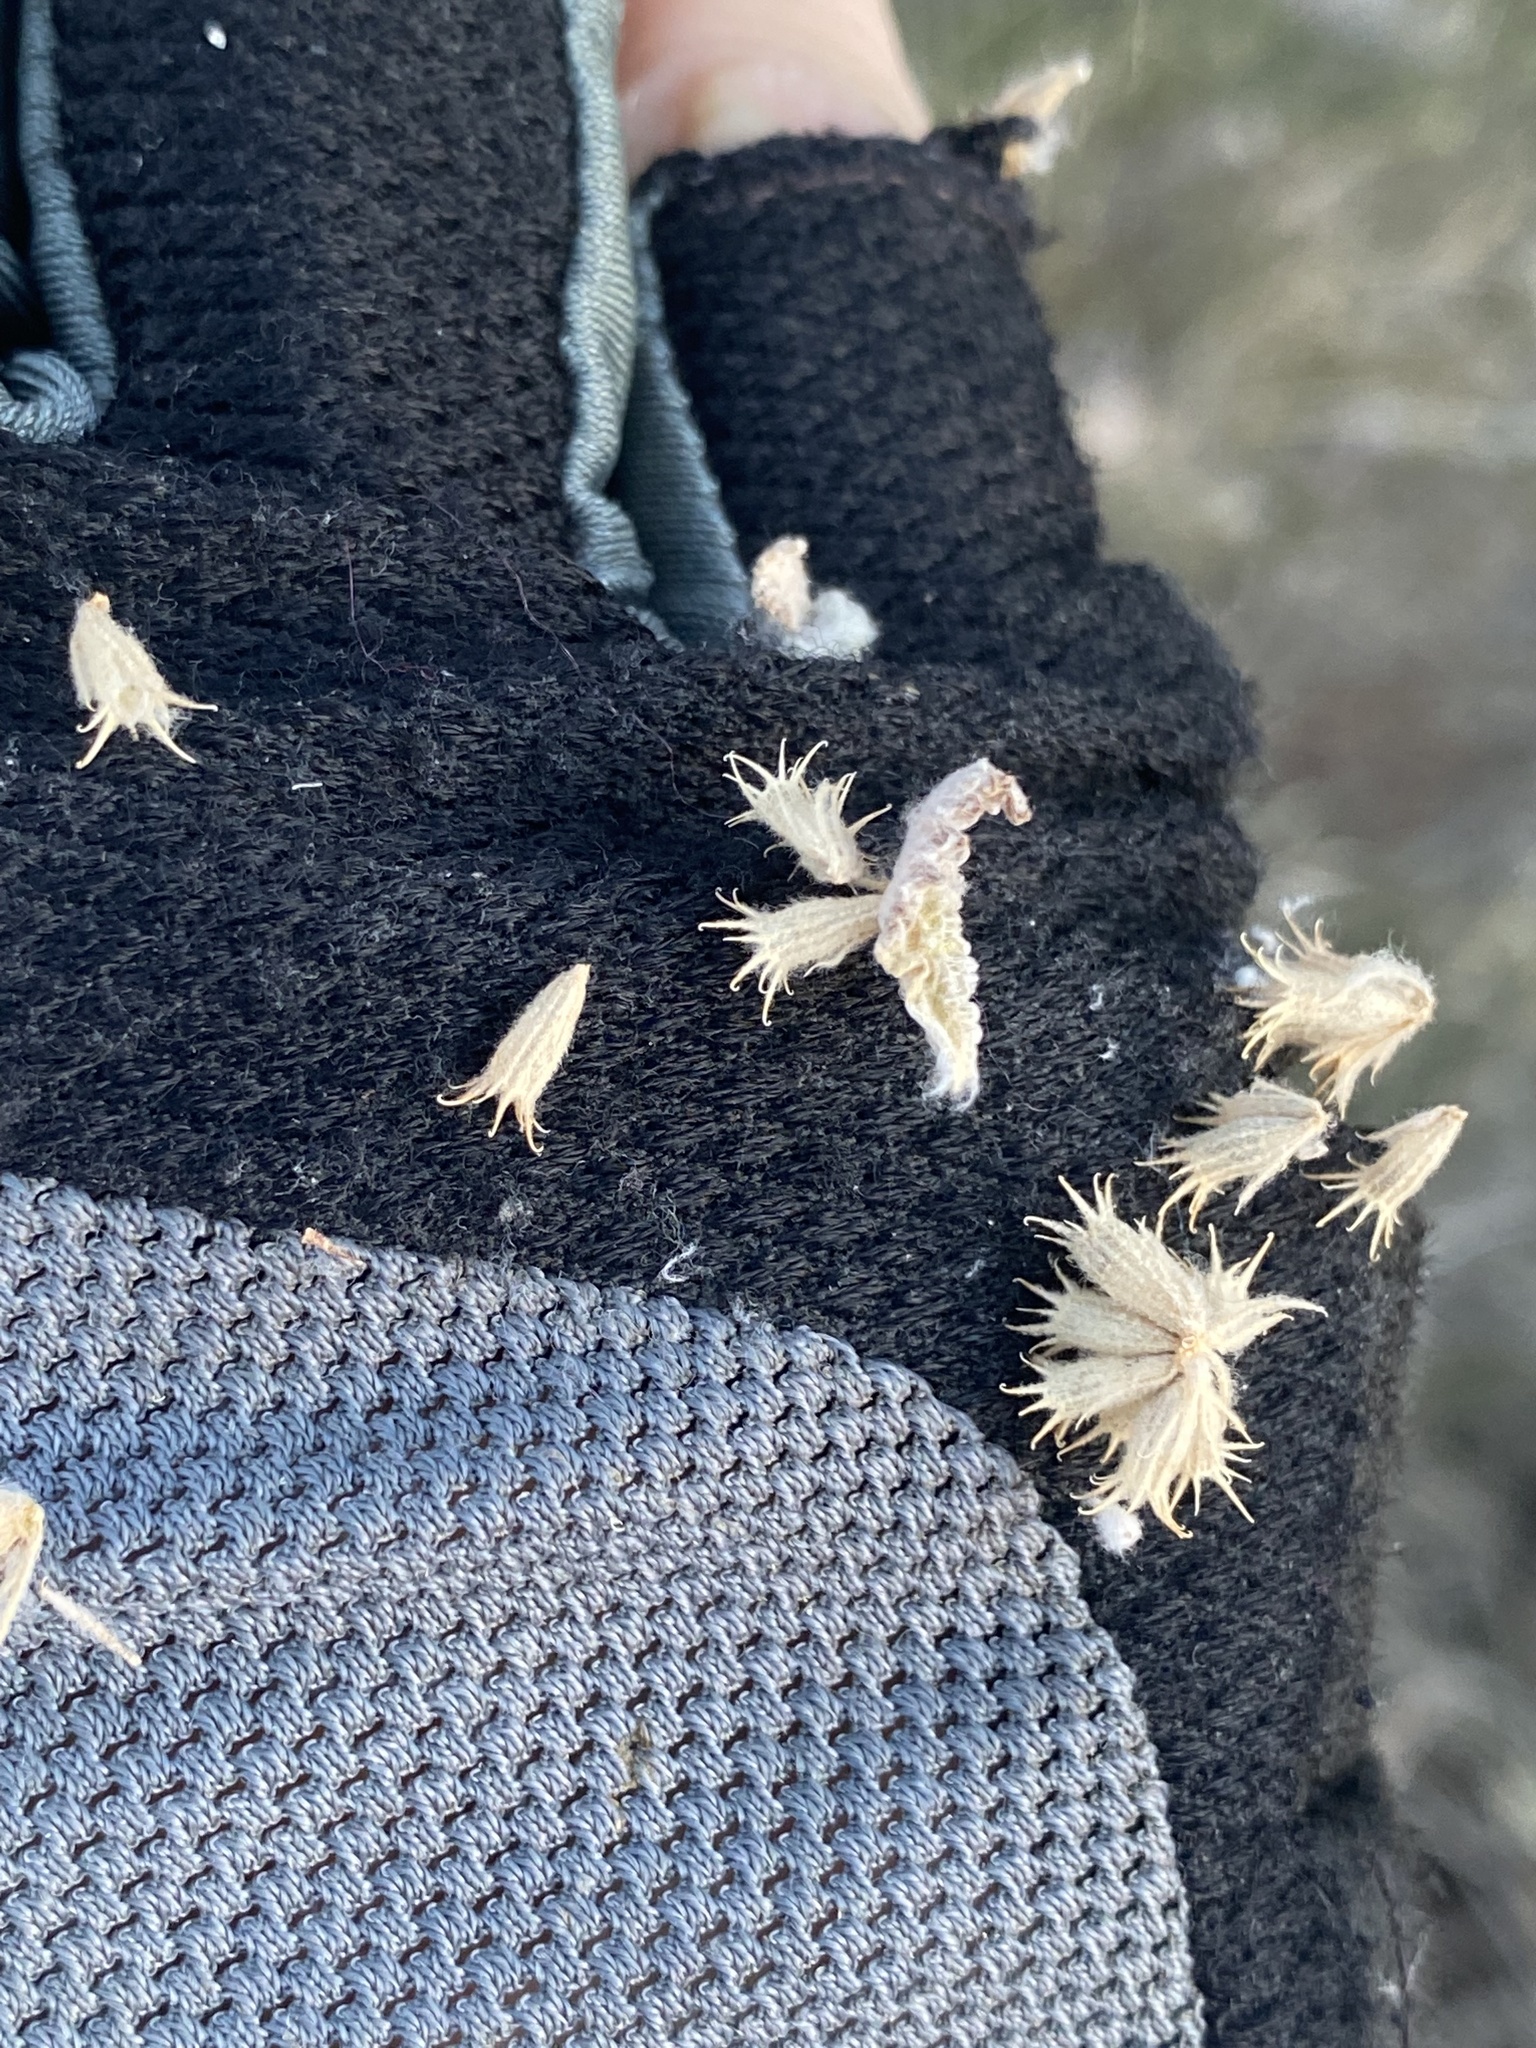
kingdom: Plantae
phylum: Tracheophyta
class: Magnoliopsida
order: Lamiales
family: Lamiaceae
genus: Marrubium
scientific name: Marrubium vulgare
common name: Horehound
